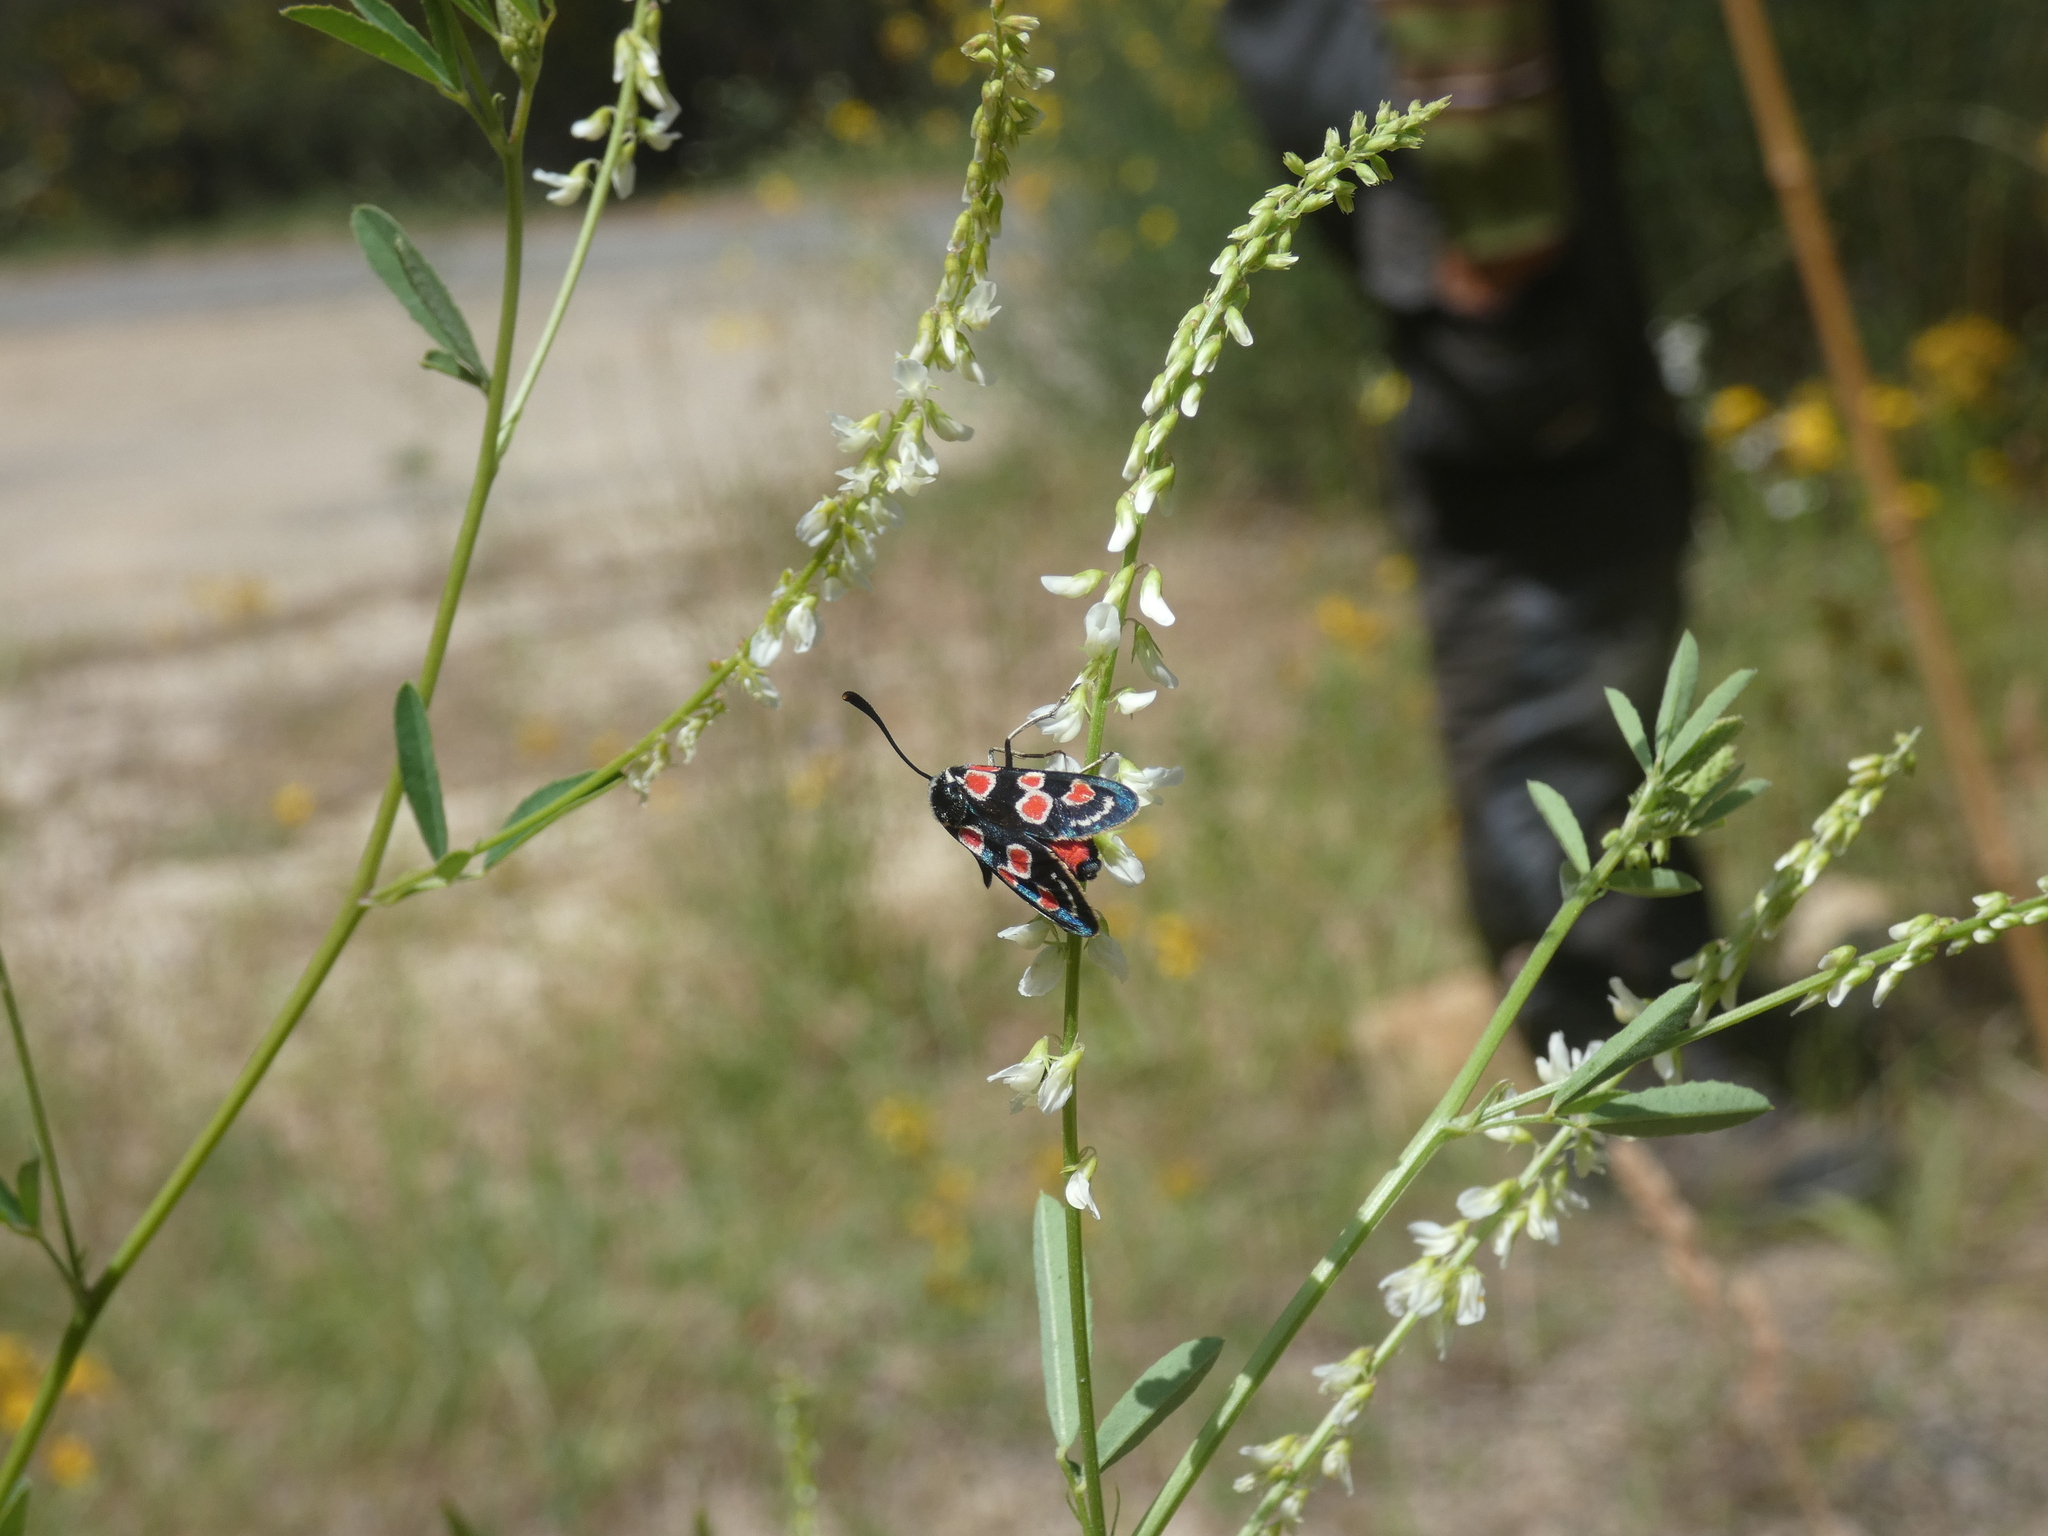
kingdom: Animalia
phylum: Arthropoda
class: Insecta
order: Lepidoptera
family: Zygaenidae
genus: Zygaena
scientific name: Zygaena occitanica
